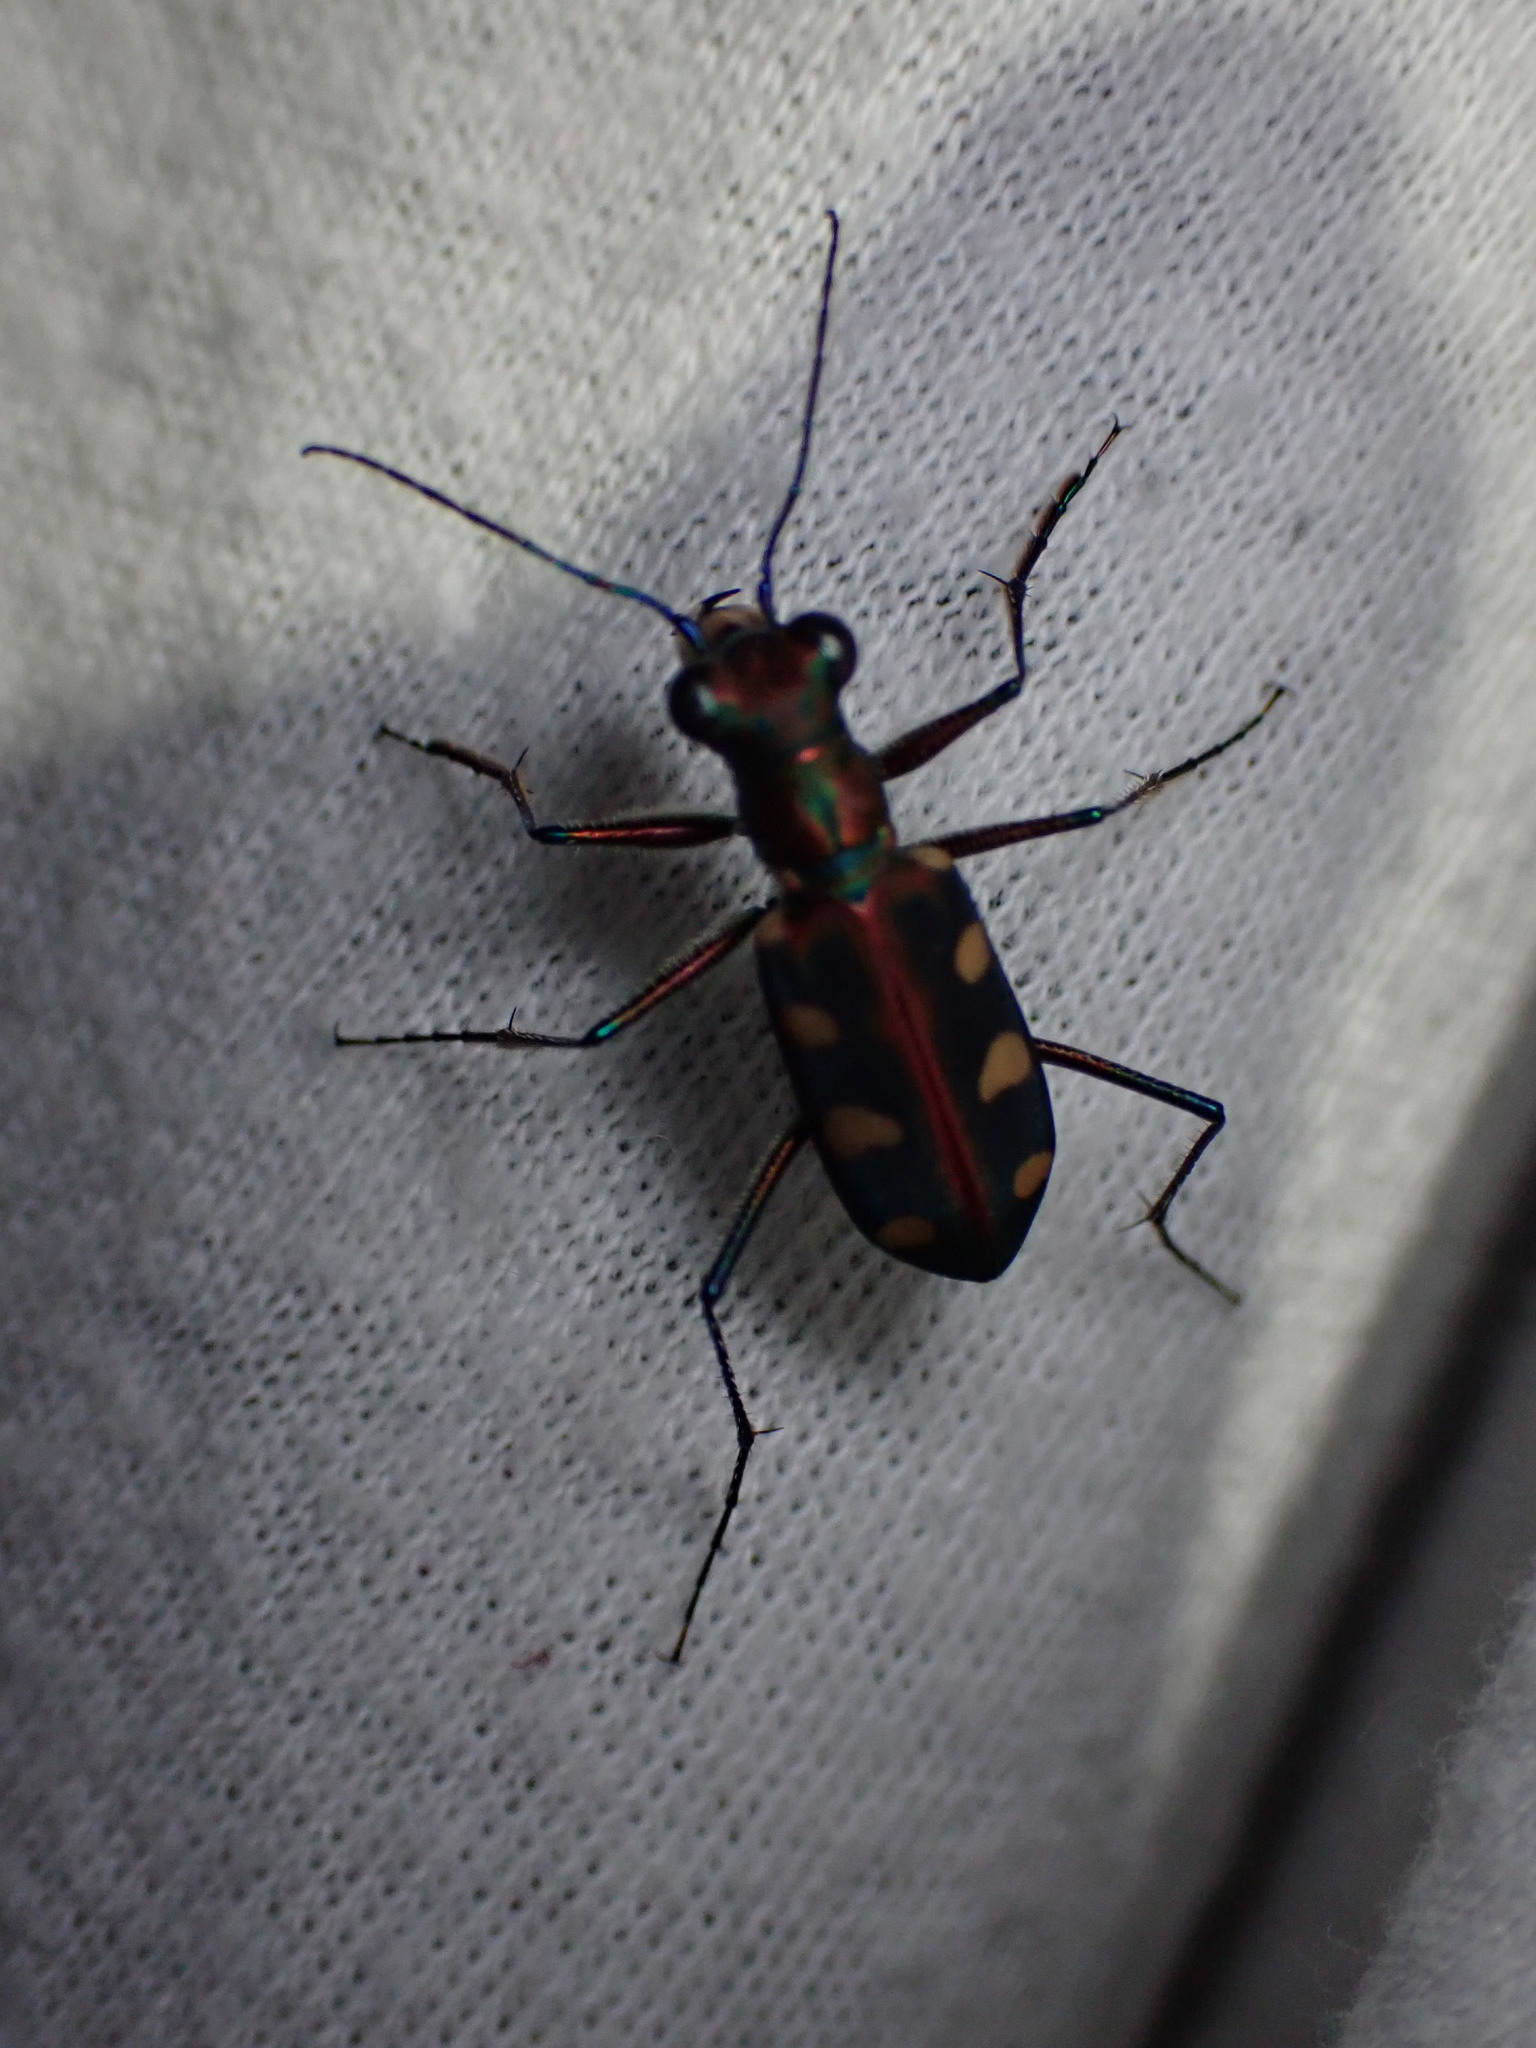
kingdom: Animalia
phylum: Arthropoda
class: Insecta
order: Coleoptera
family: Carabidae
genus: Cicindela
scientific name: Cicindela aurulenta
